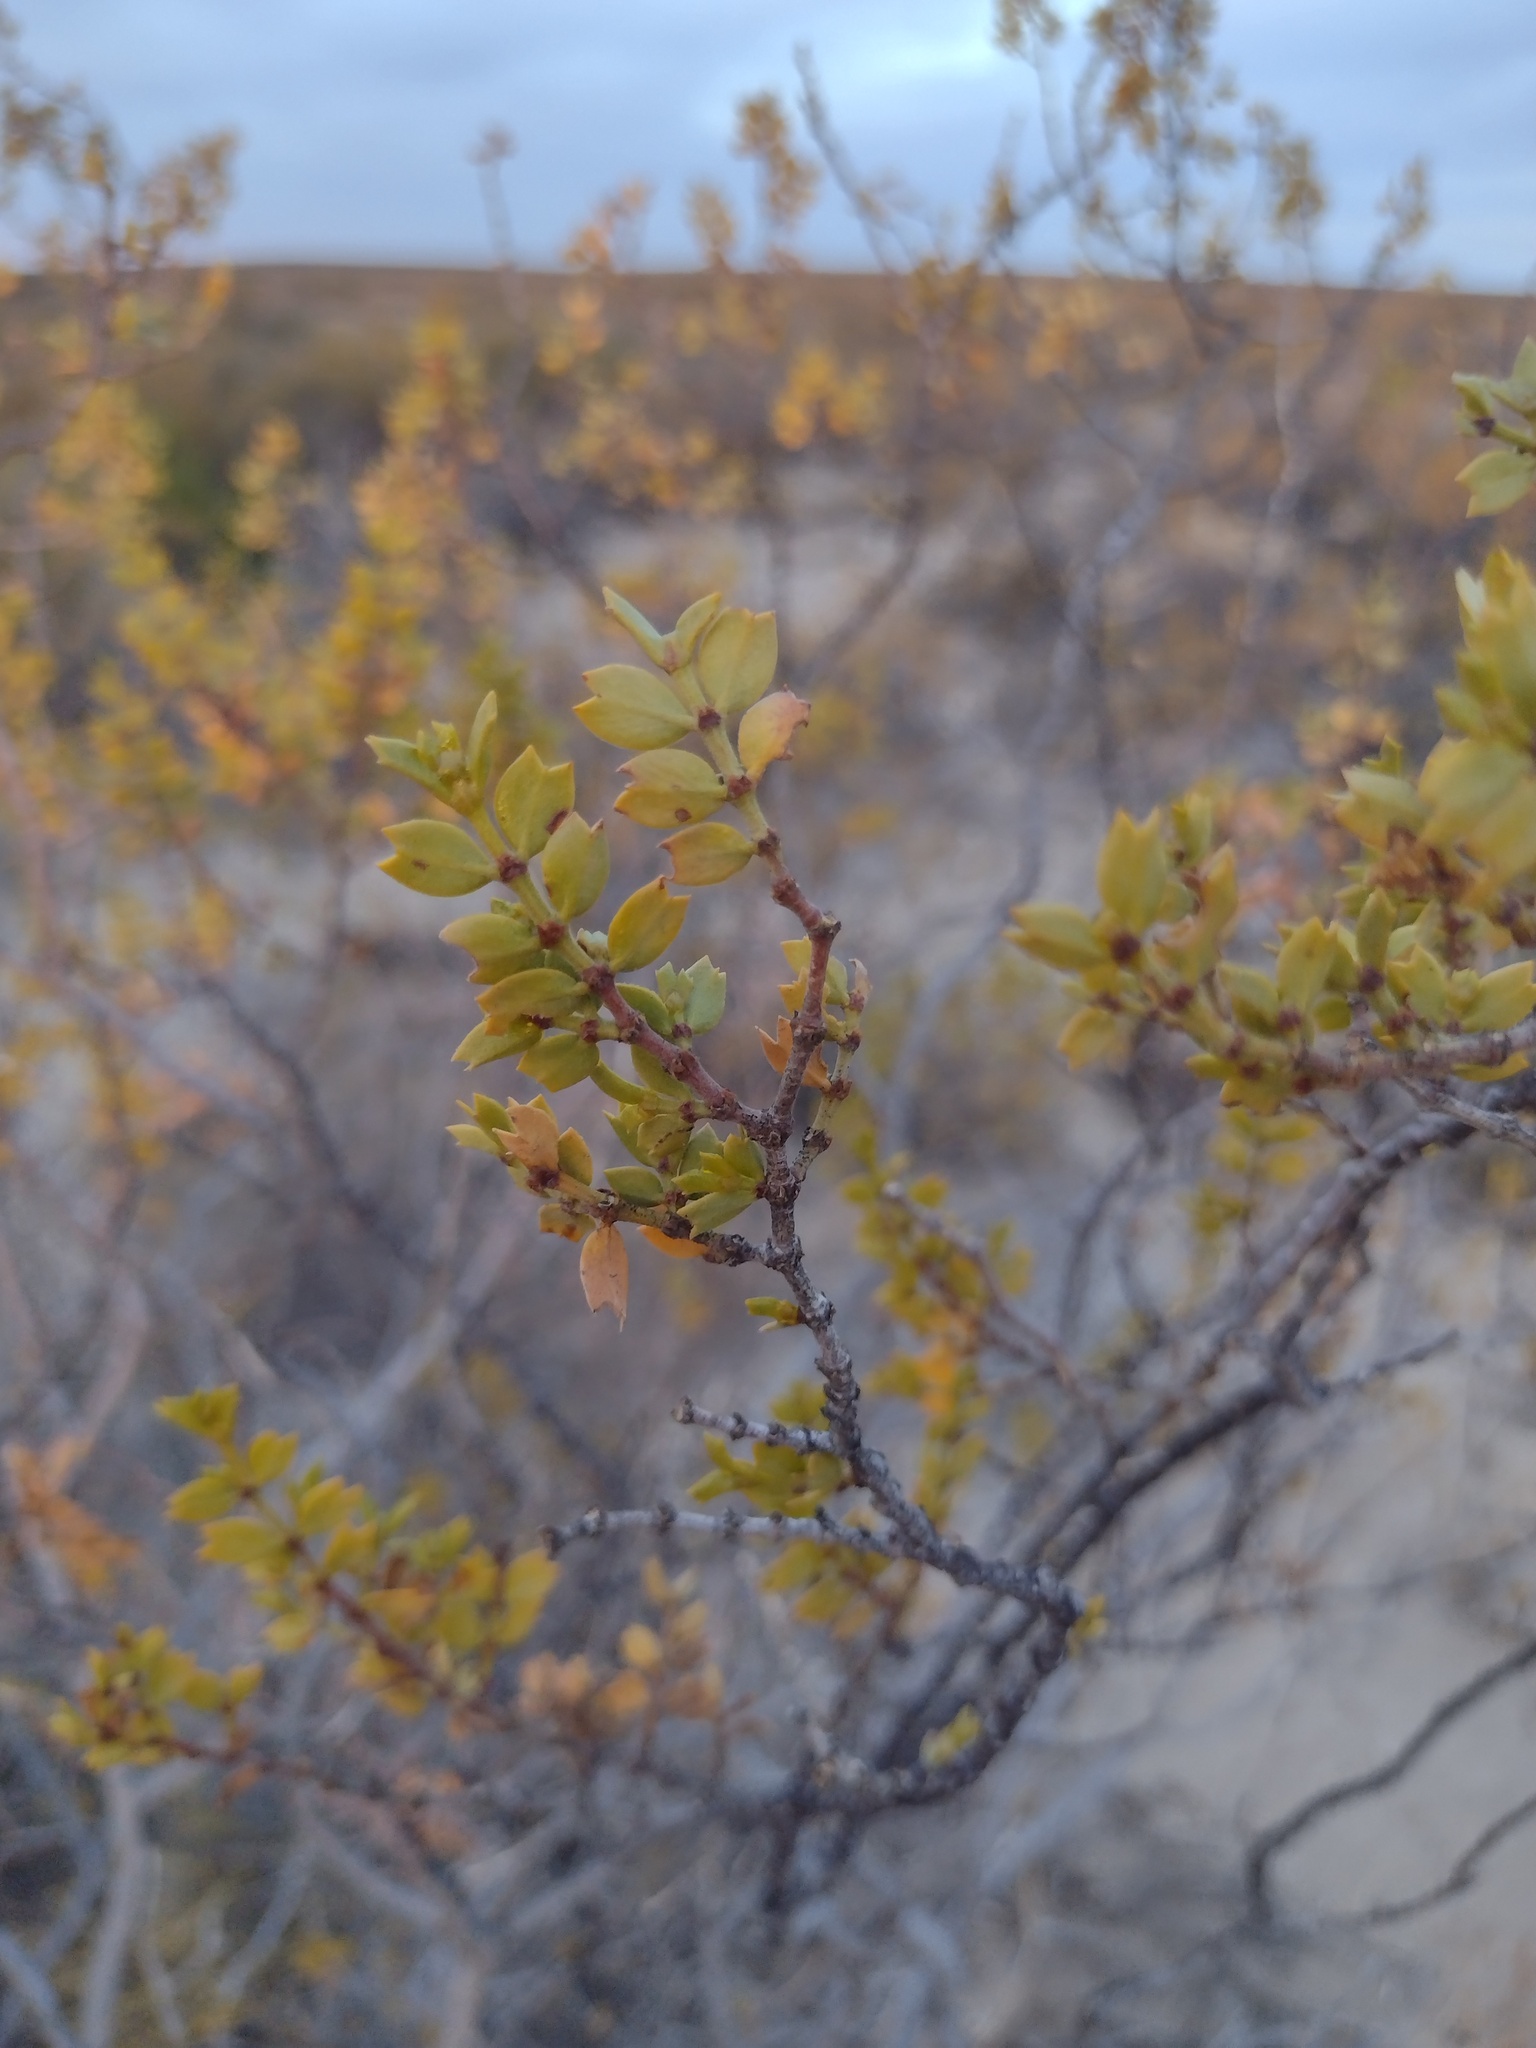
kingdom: Plantae
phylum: Tracheophyta
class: Magnoliopsida
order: Zygophyllales
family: Zygophyllaceae
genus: Larrea
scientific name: Larrea cuneifolia
